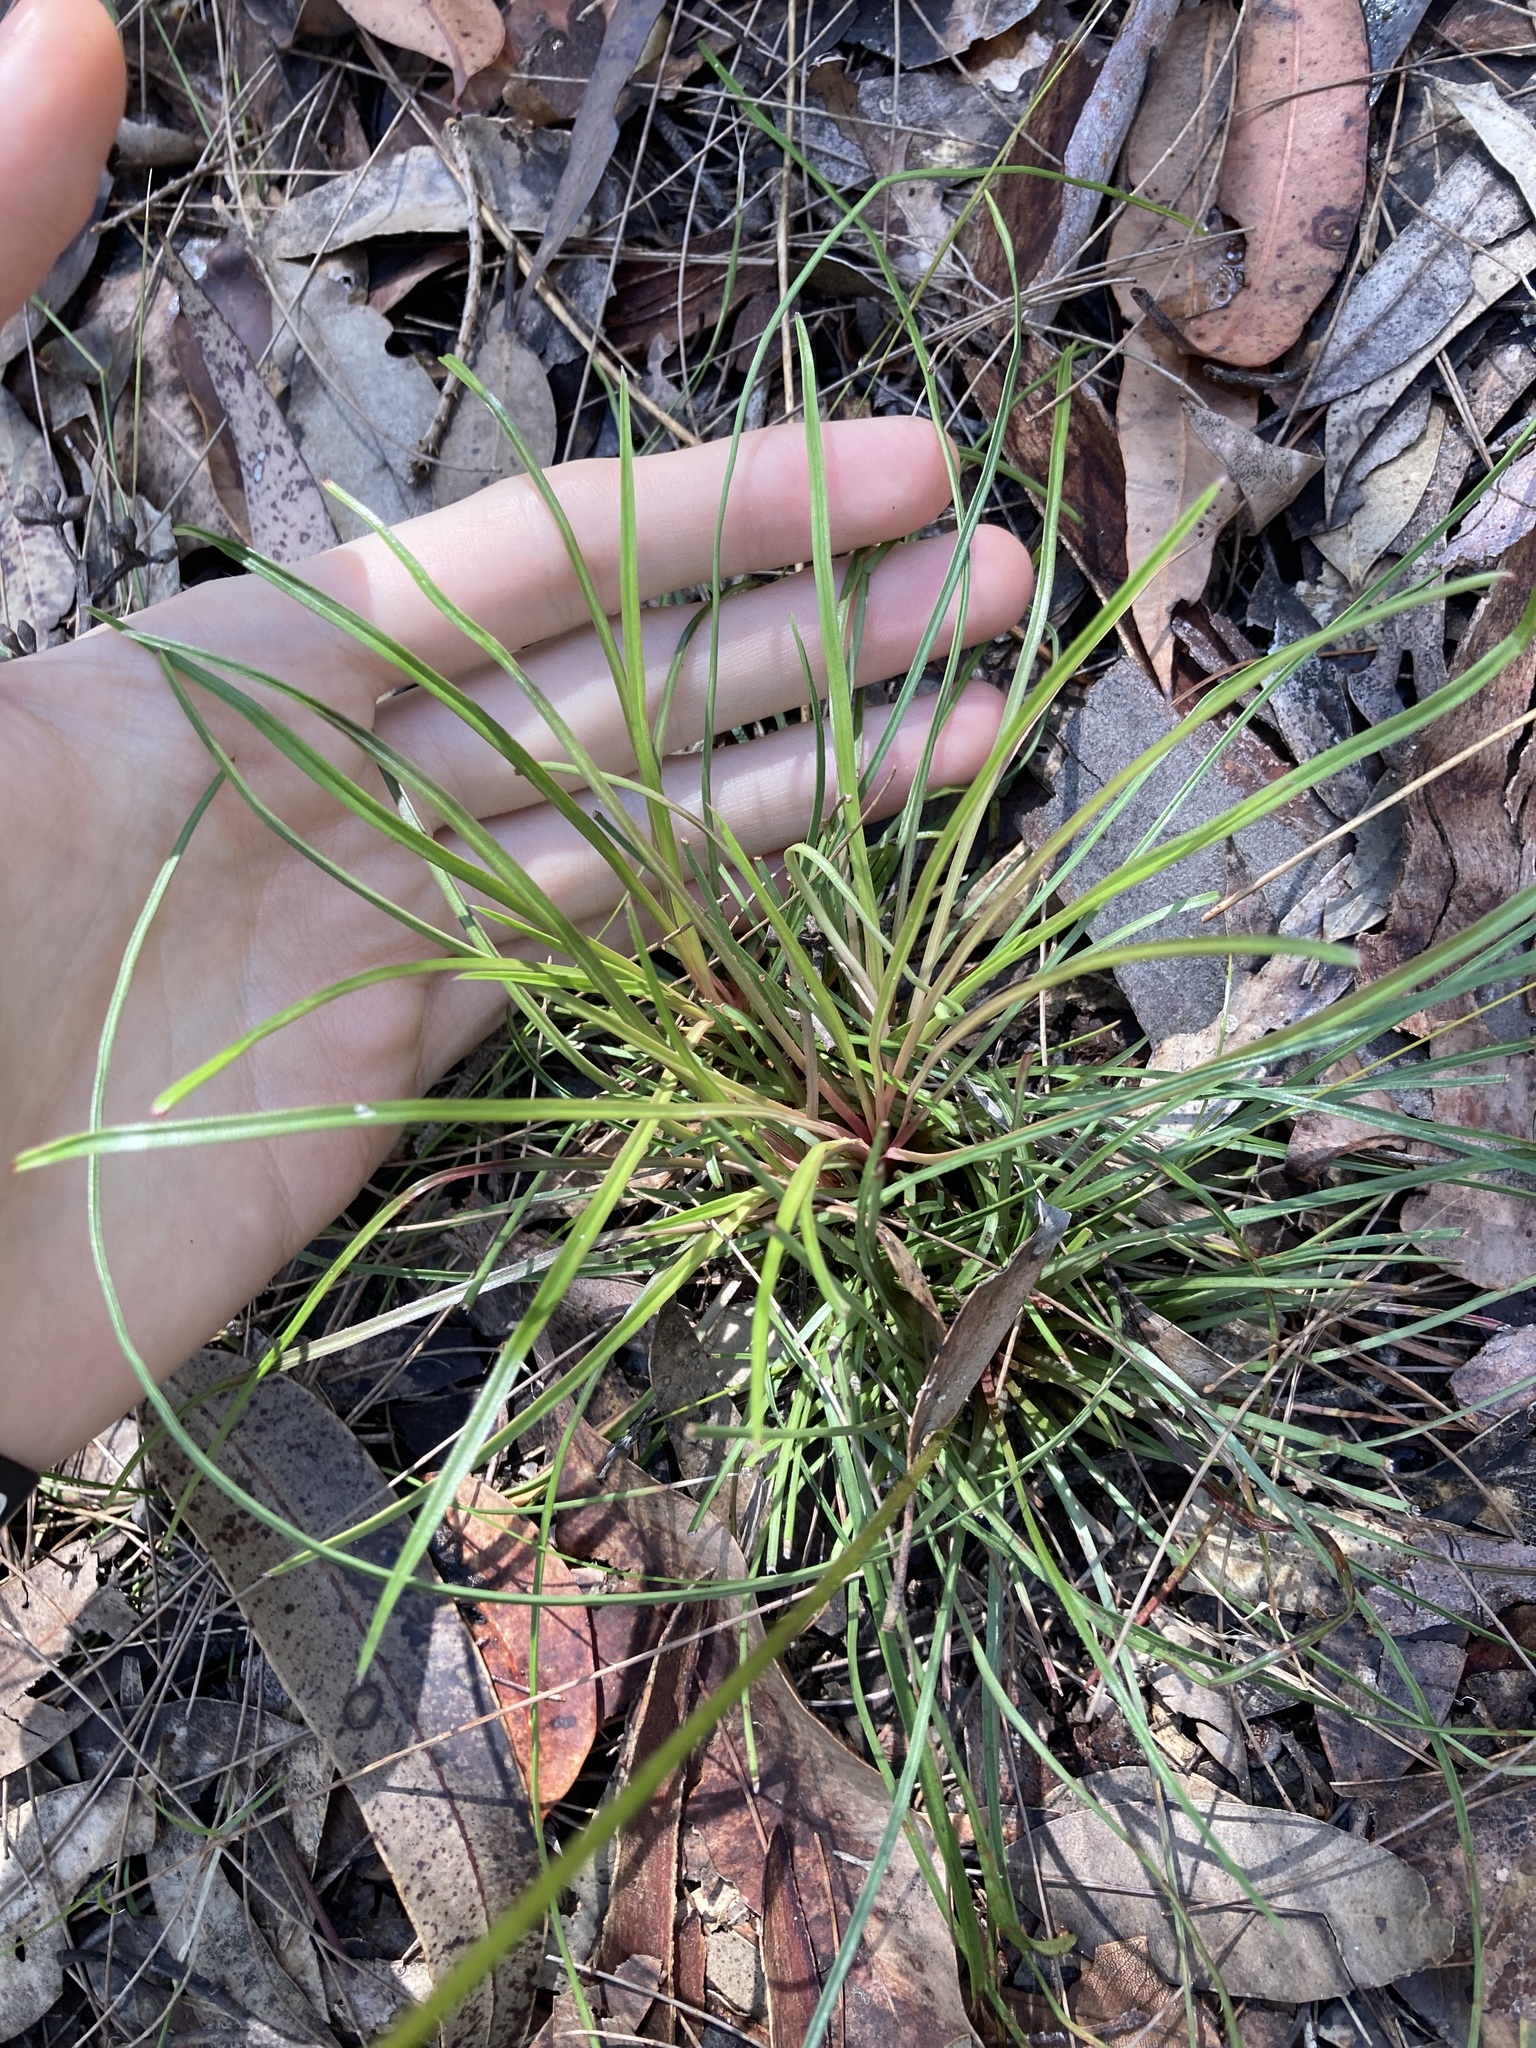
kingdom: Plantae
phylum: Tracheophyta
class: Magnoliopsida
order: Asterales
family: Stylidiaceae
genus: Stylidium
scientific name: Stylidium graminifolium
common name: Grass triggerplant
